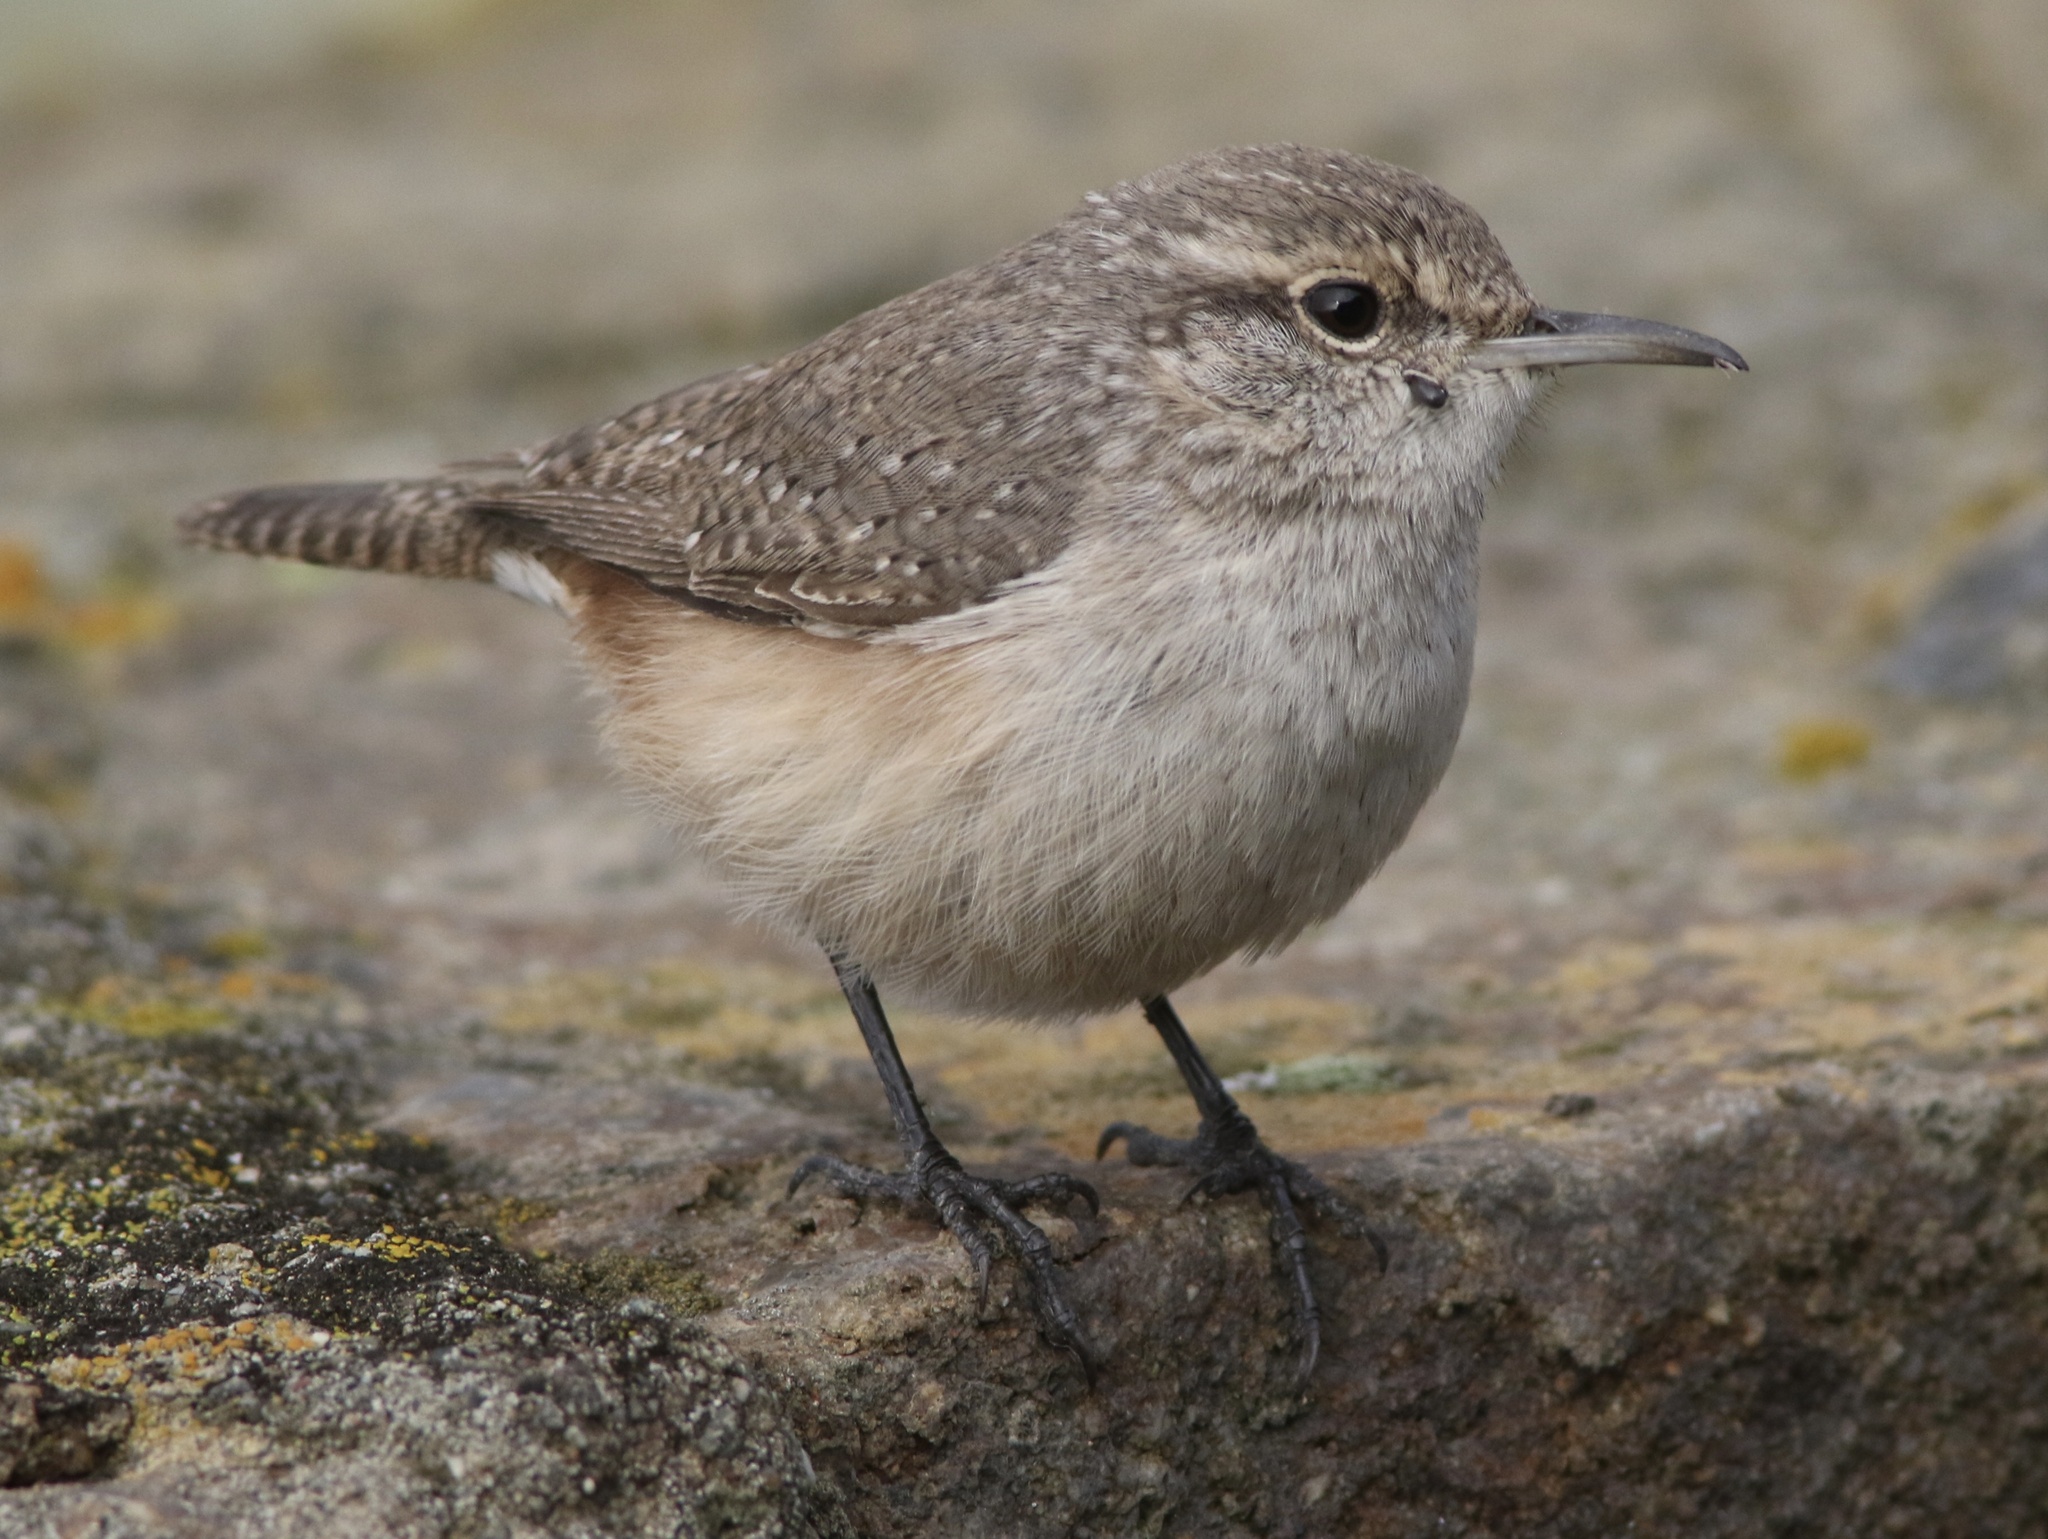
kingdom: Animalia
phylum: Chordata
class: Aves
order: Passeriformes
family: Troglodytidae
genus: Salpinctes
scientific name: Salpinctes obsoletus
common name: Rock wren
